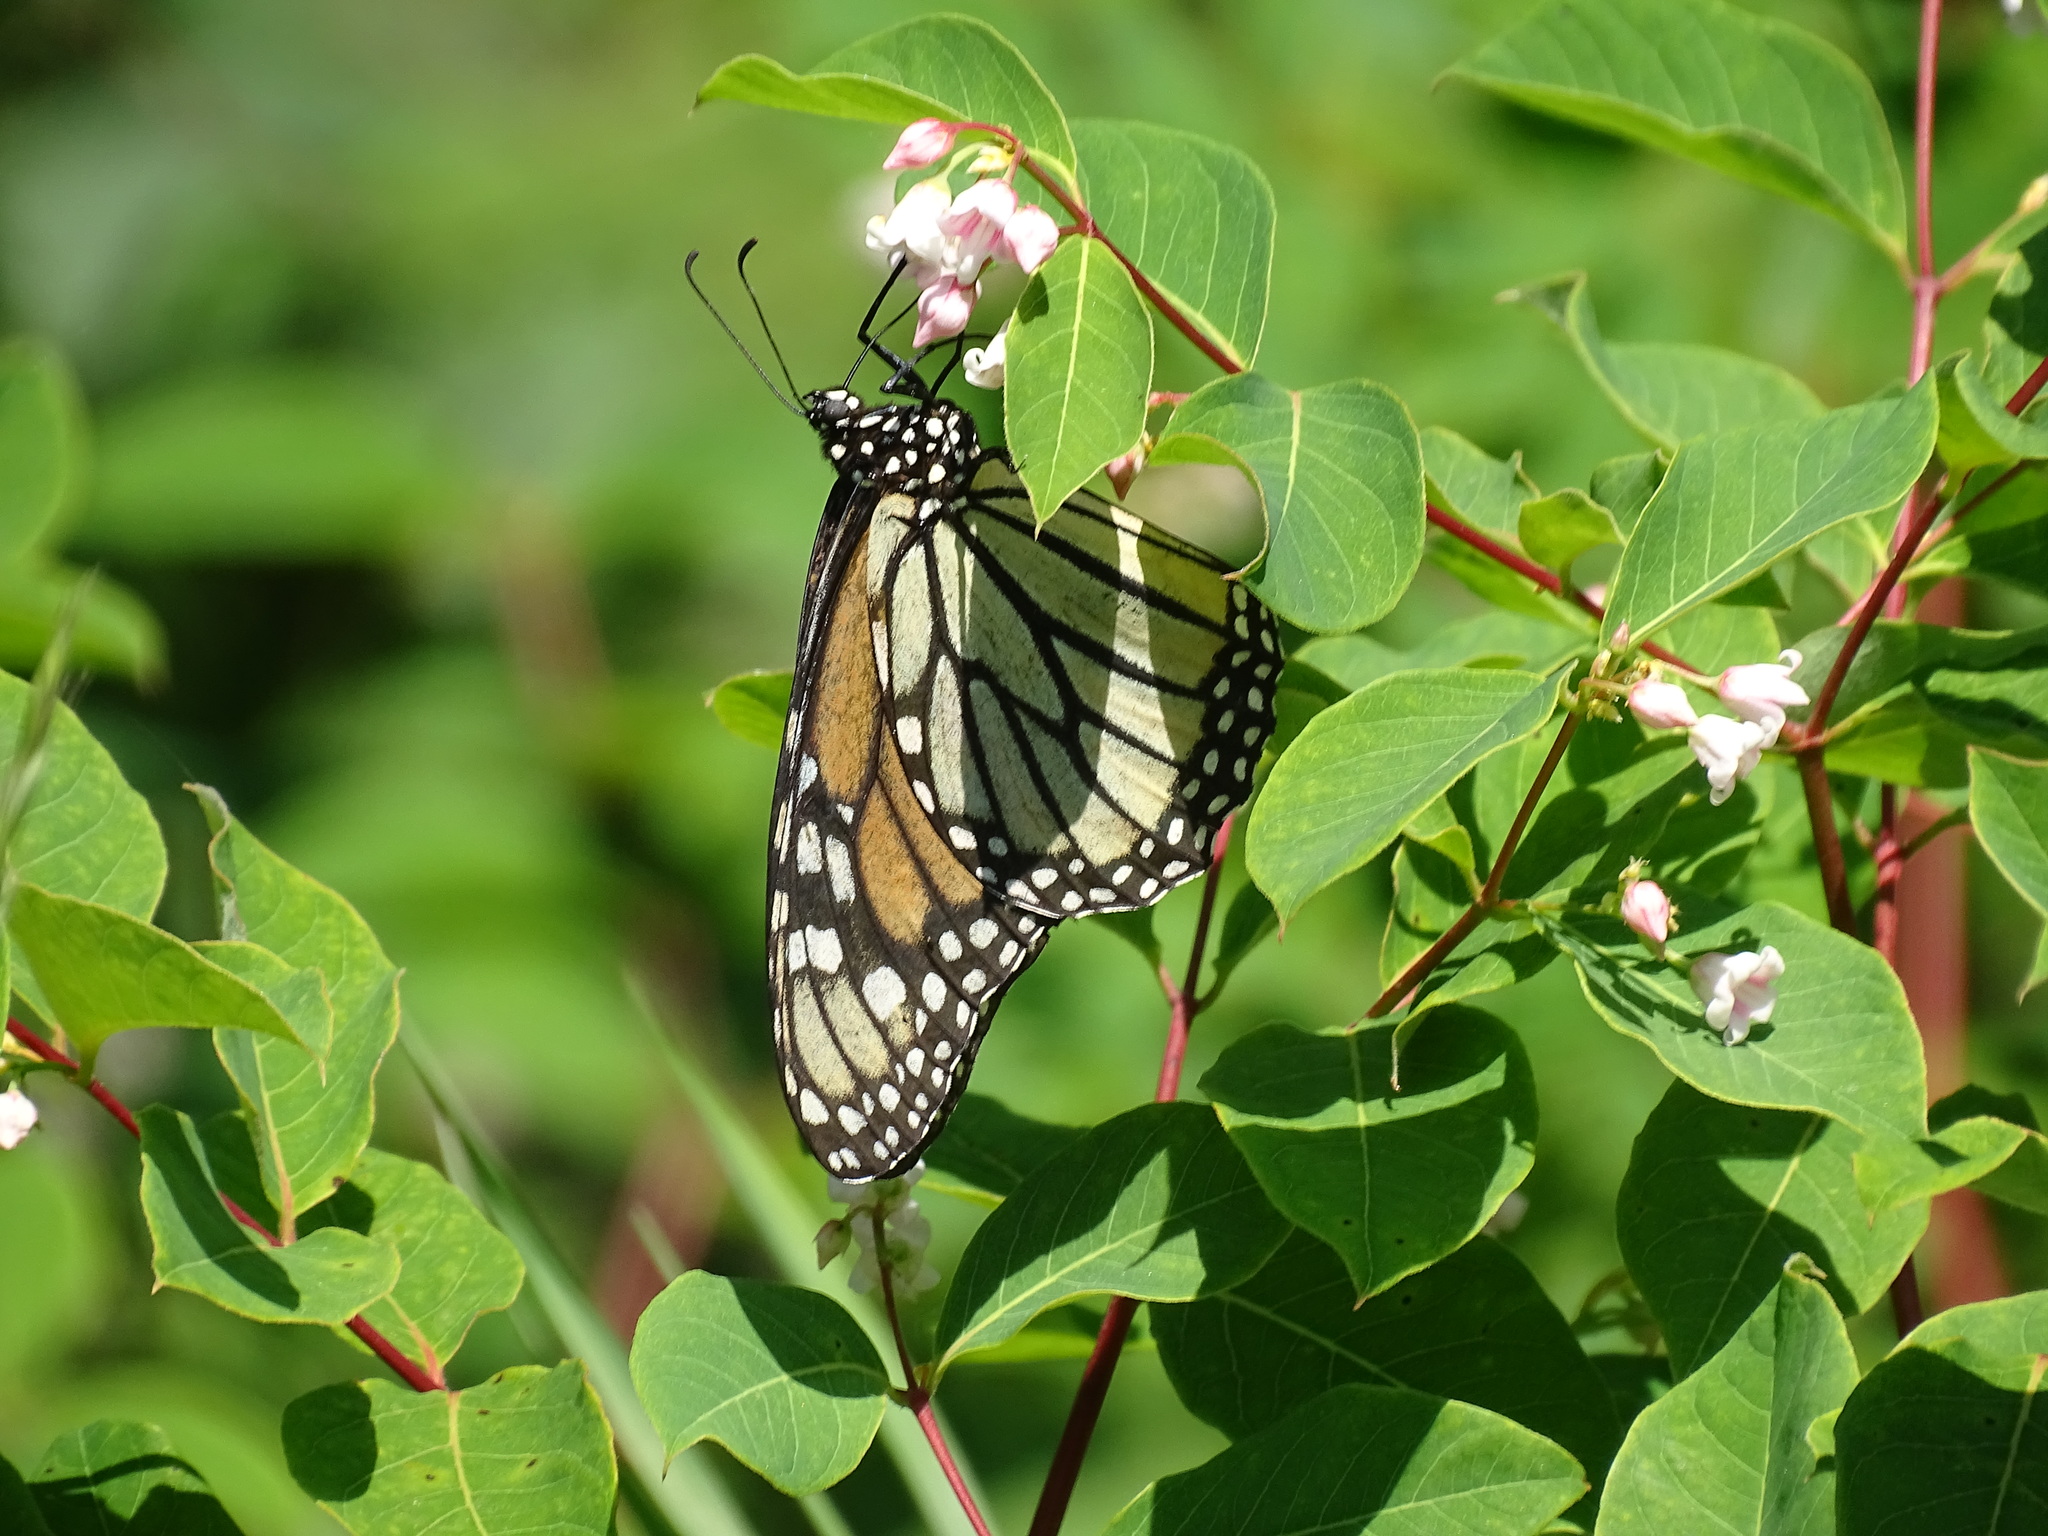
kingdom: Animalia
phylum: Arthropoda
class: Insecta
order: Lepidoptera
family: Nymphalidae
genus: Danaus
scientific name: Danaus plexippus
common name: Monarch
